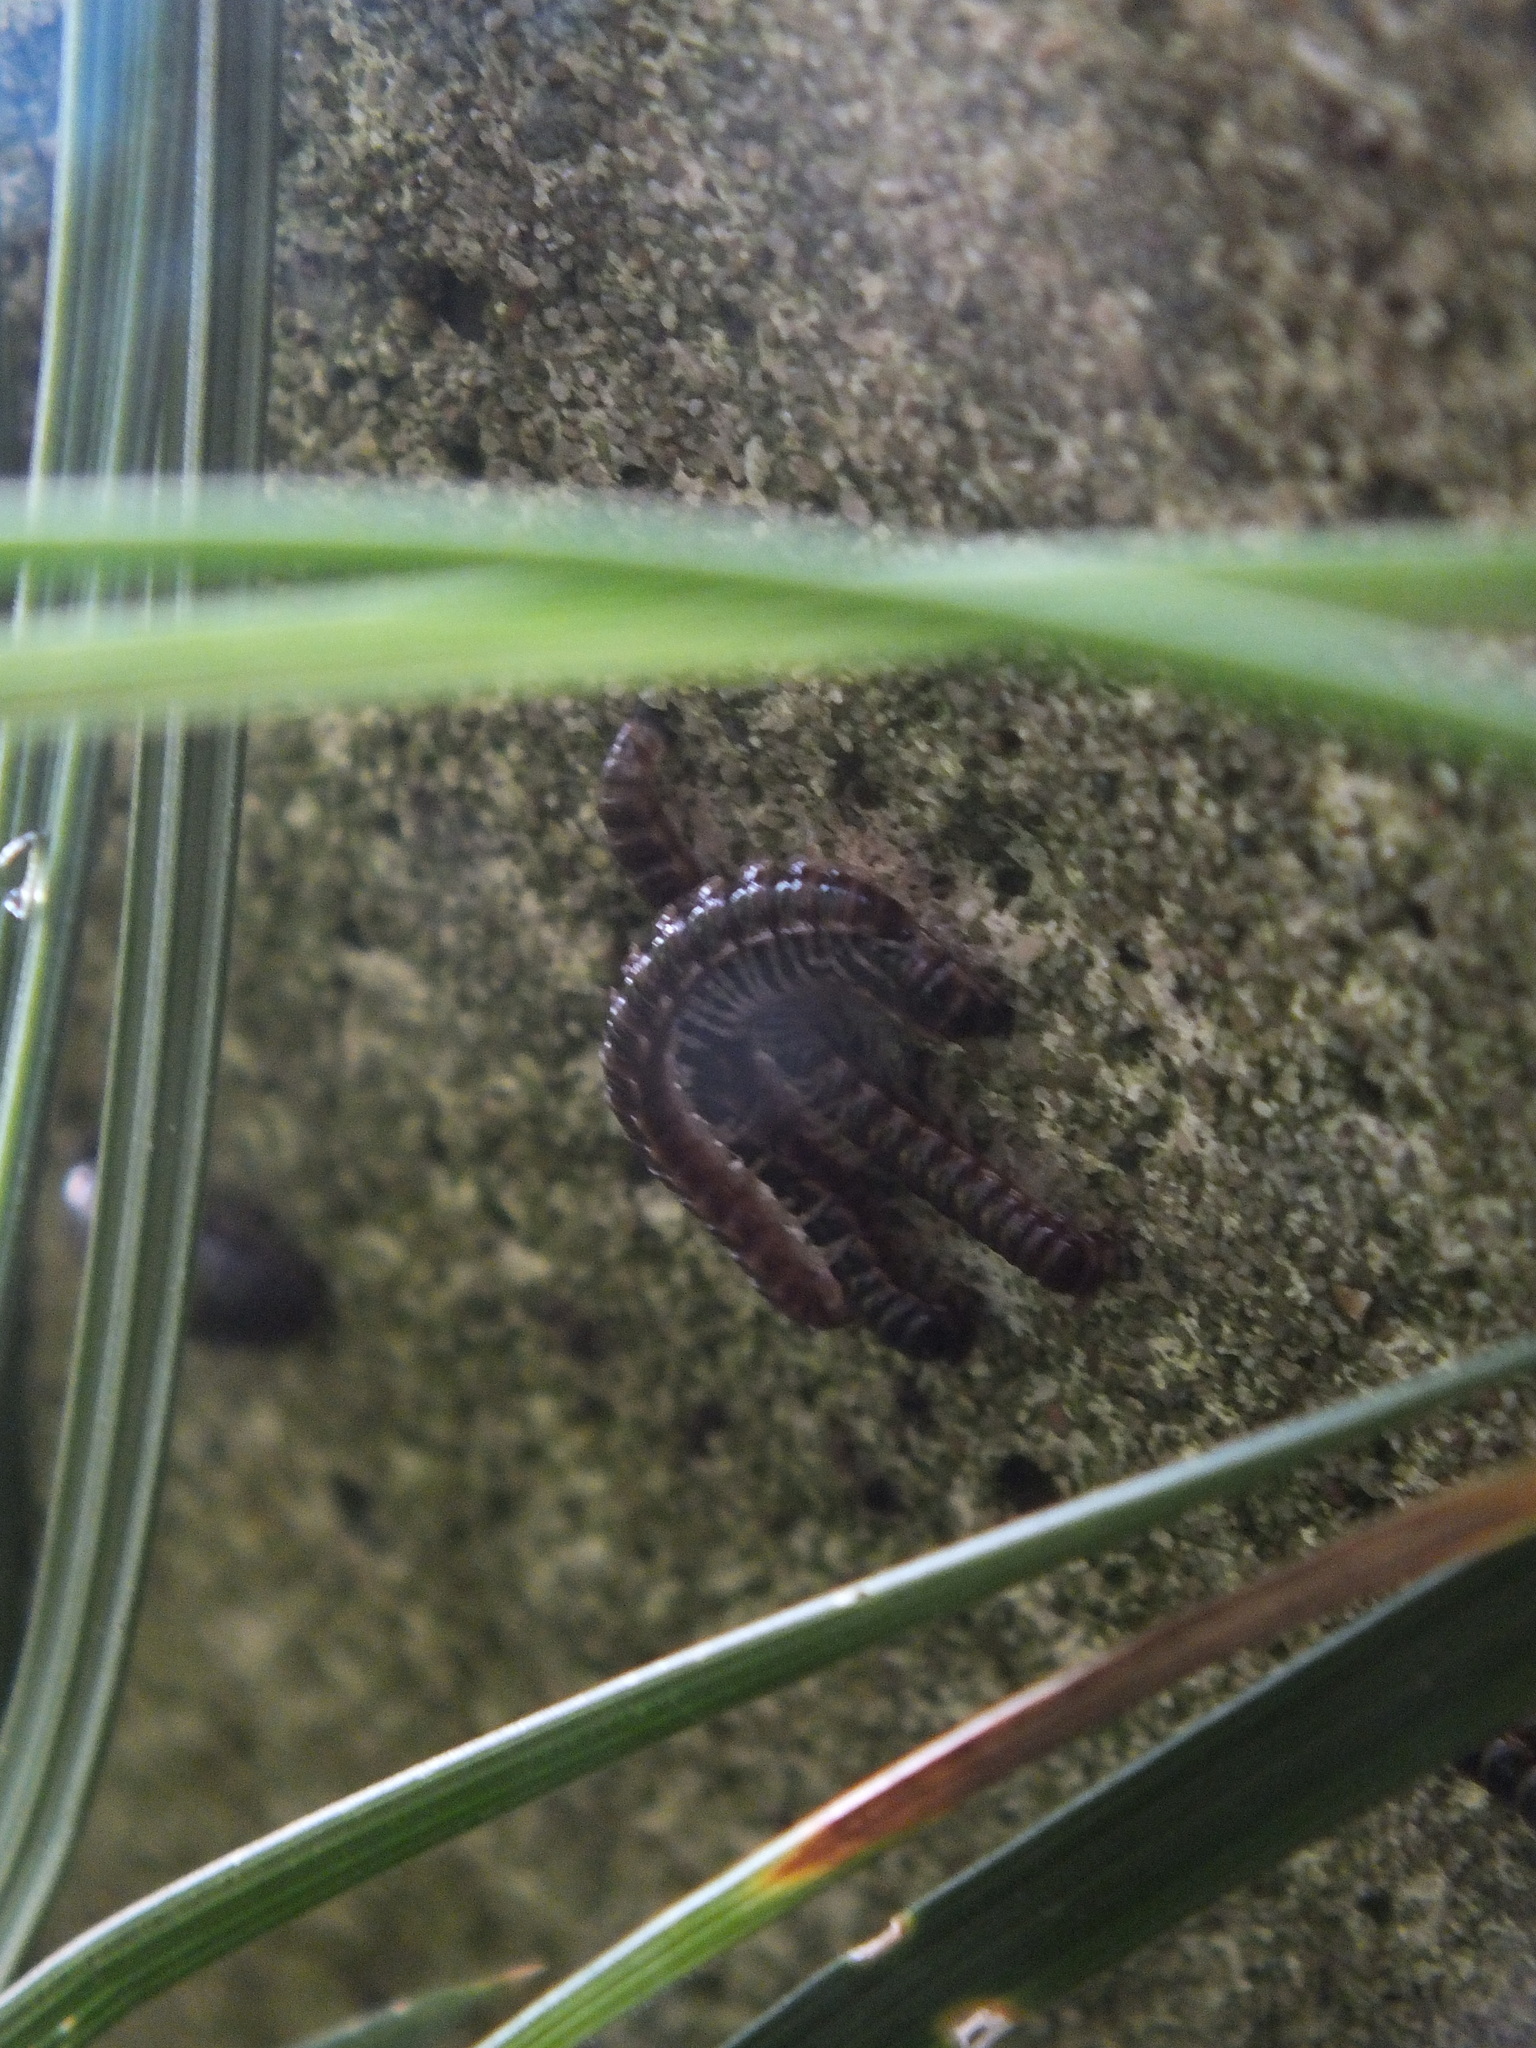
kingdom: Animalia
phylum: Arthropoda
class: Diplopoda
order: Polydesmida
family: Paradoxosomatidae
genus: Oxidus
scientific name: Oxidus gracilis
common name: Greenhouse millipede
